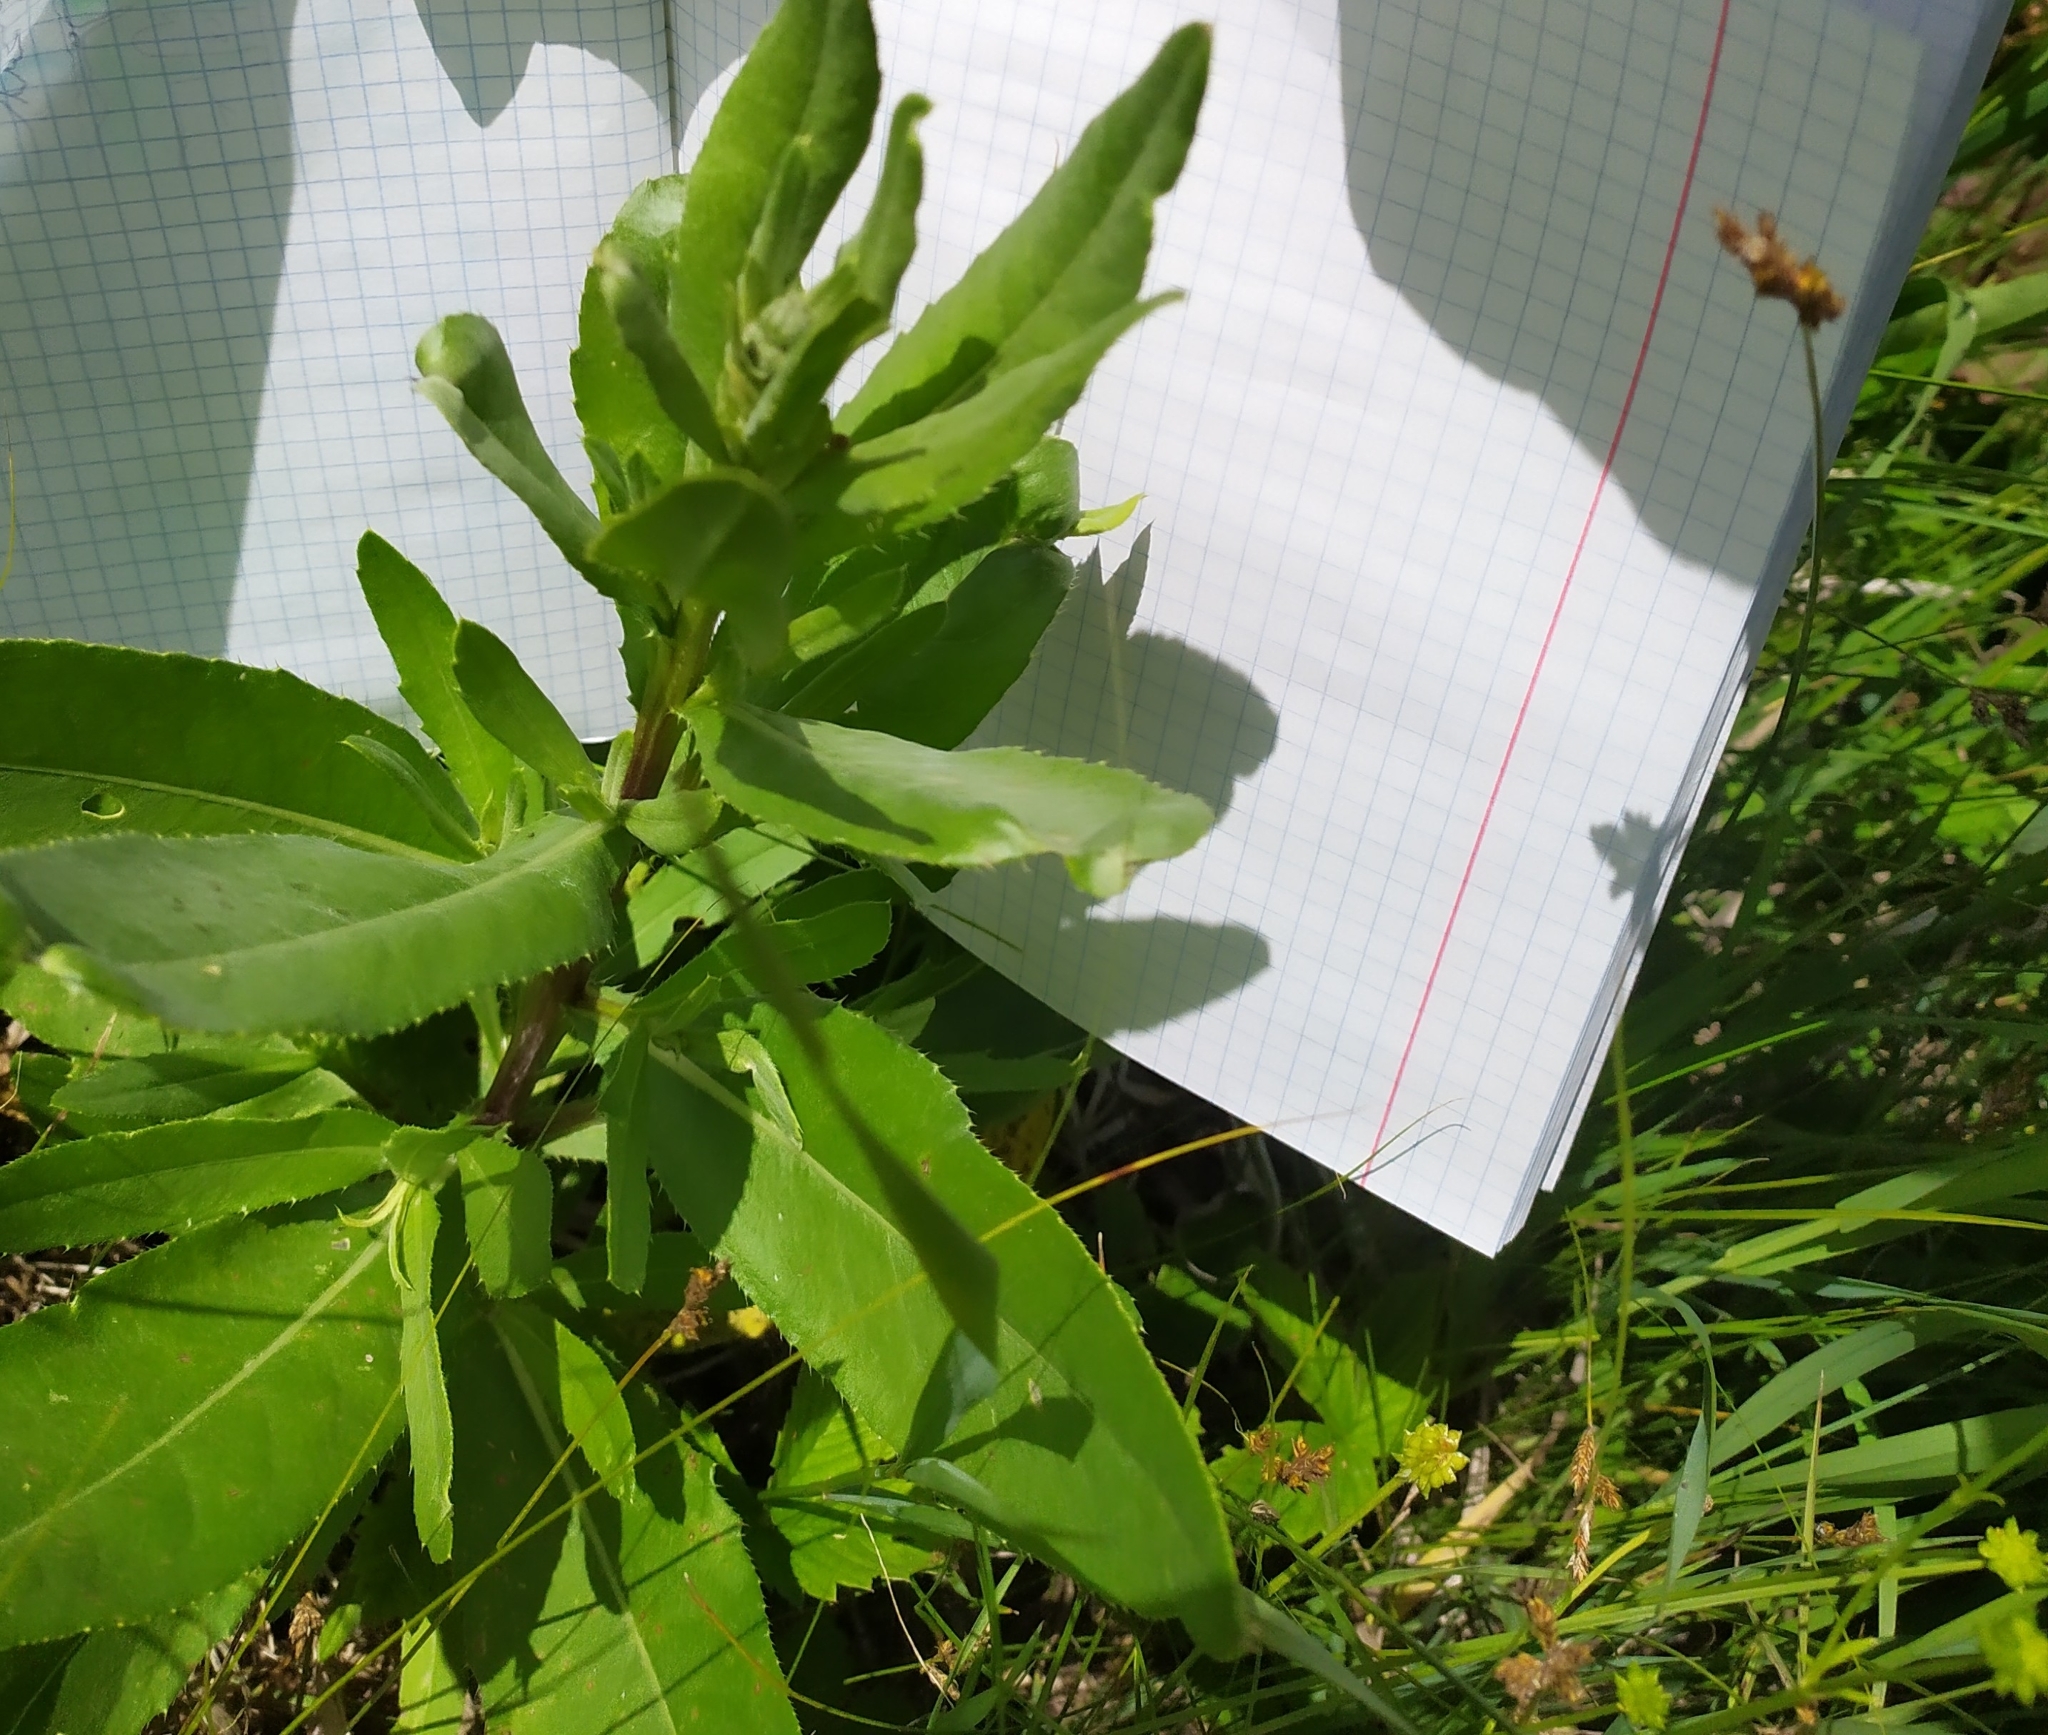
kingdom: Plantae
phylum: Tracheophyta
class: Magnoliopsida
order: Asterales
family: Asteraceae
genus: Cirsium
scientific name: Cirsium arvense
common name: Creeping thistle
